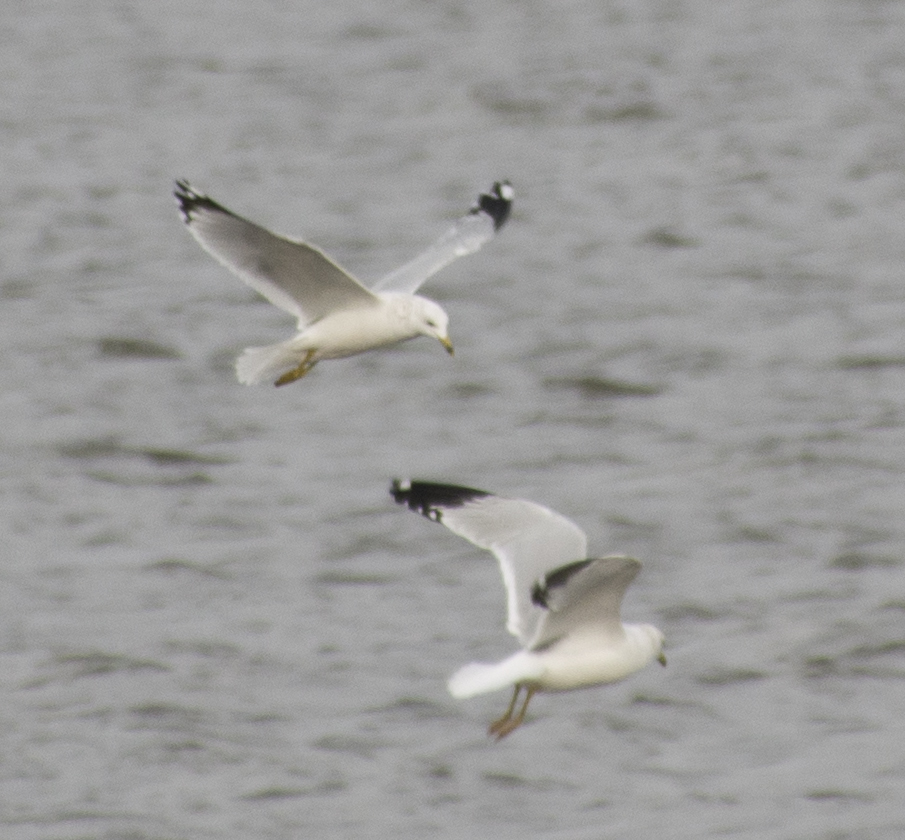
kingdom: Animalia
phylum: Chordata
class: Aves
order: Charadriiformes
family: Laridae
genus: Larus
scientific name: Larus delawarensis
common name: Ring-billed gull
